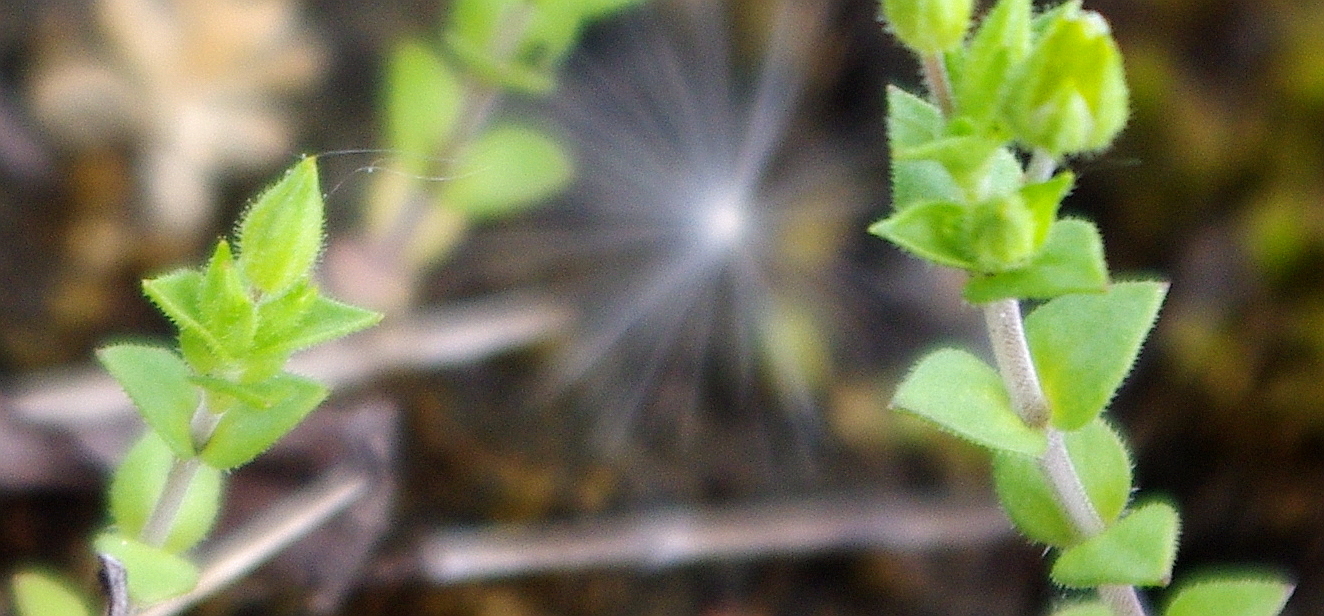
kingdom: Plantae
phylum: Tracheophyta
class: Magnoliopsida
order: Caryophyllales
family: Caryophyllaceae
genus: Arenaria
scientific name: Arenaria serpyllifolia
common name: Thyme-leaved sandwort
